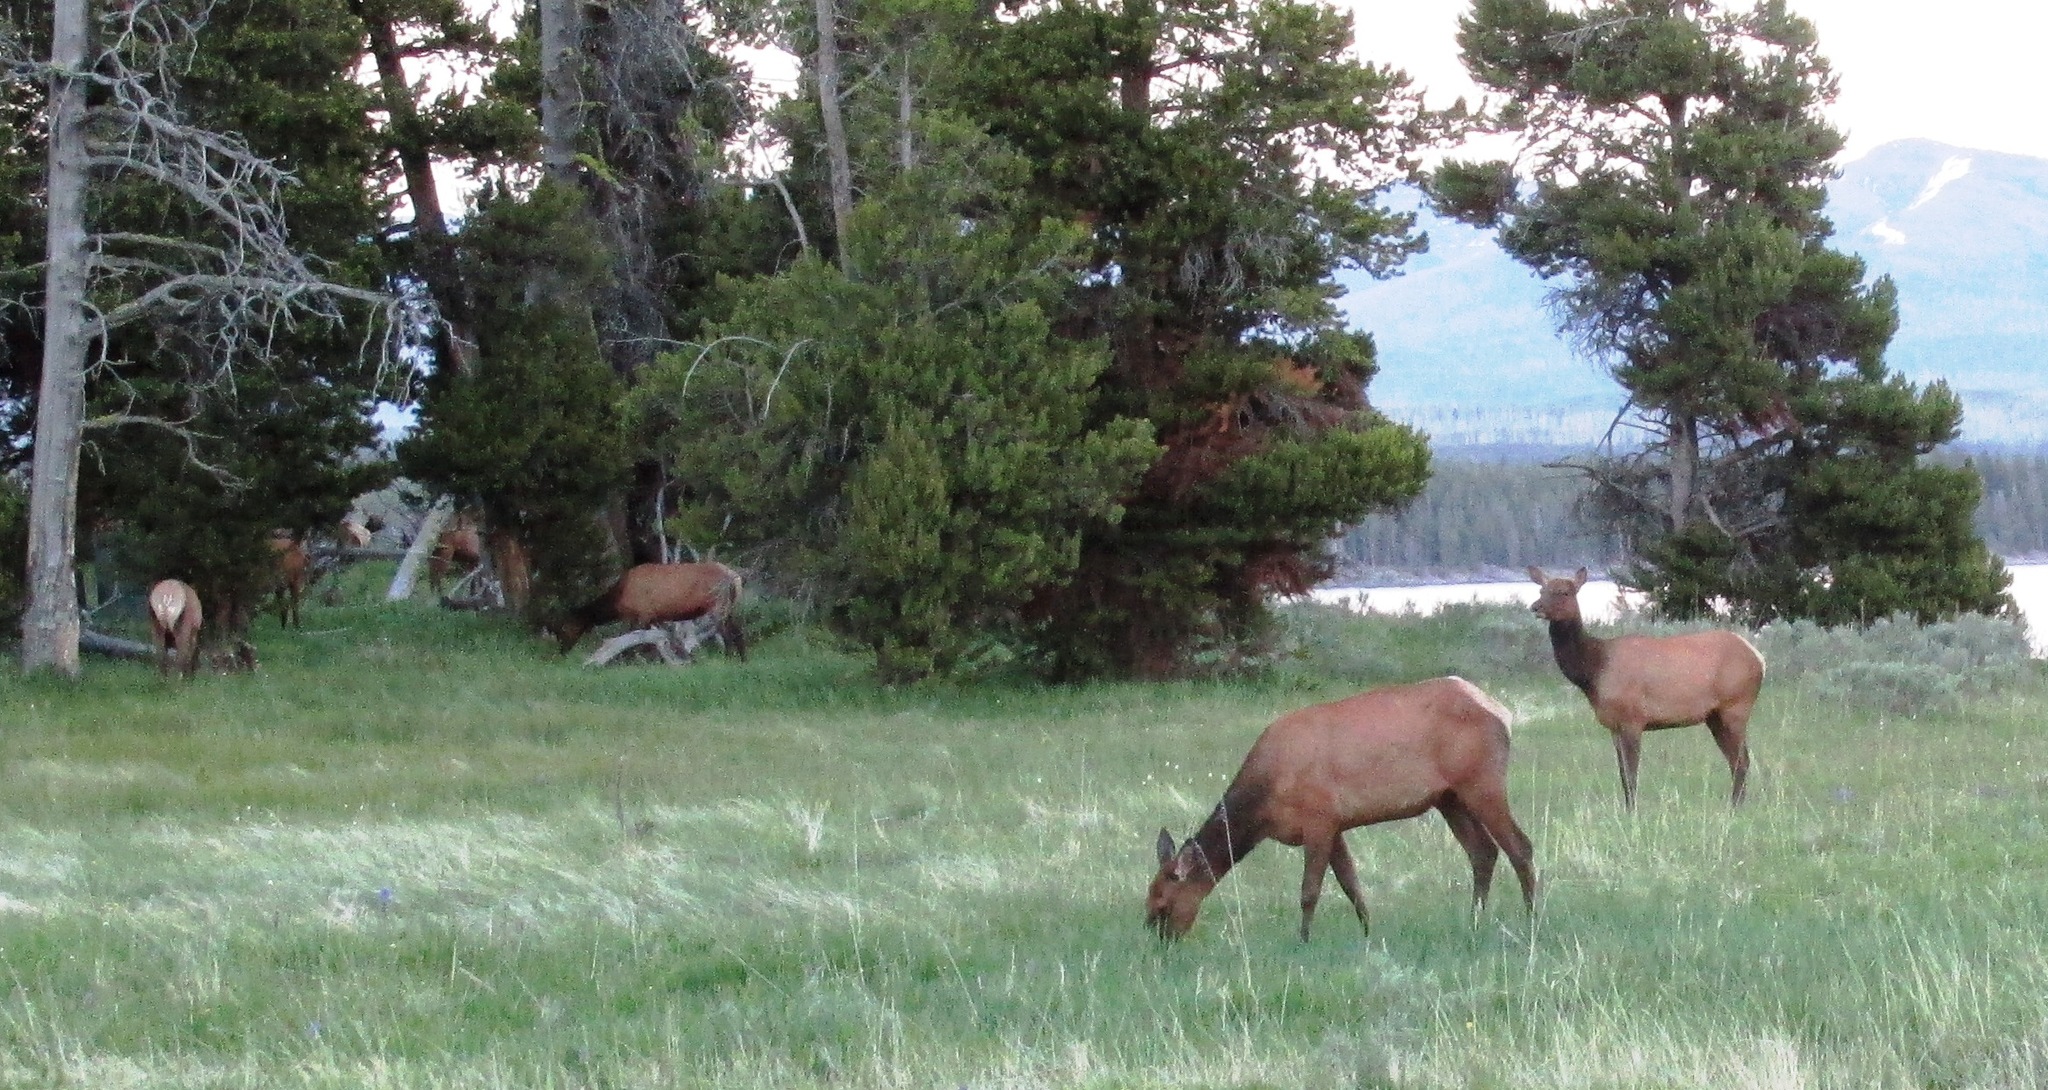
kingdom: Animalia
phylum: Chordata
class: Mammalia
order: Artiodactyla
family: Cervidae
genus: Cervus
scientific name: Cervus elaphus
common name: Red deer
